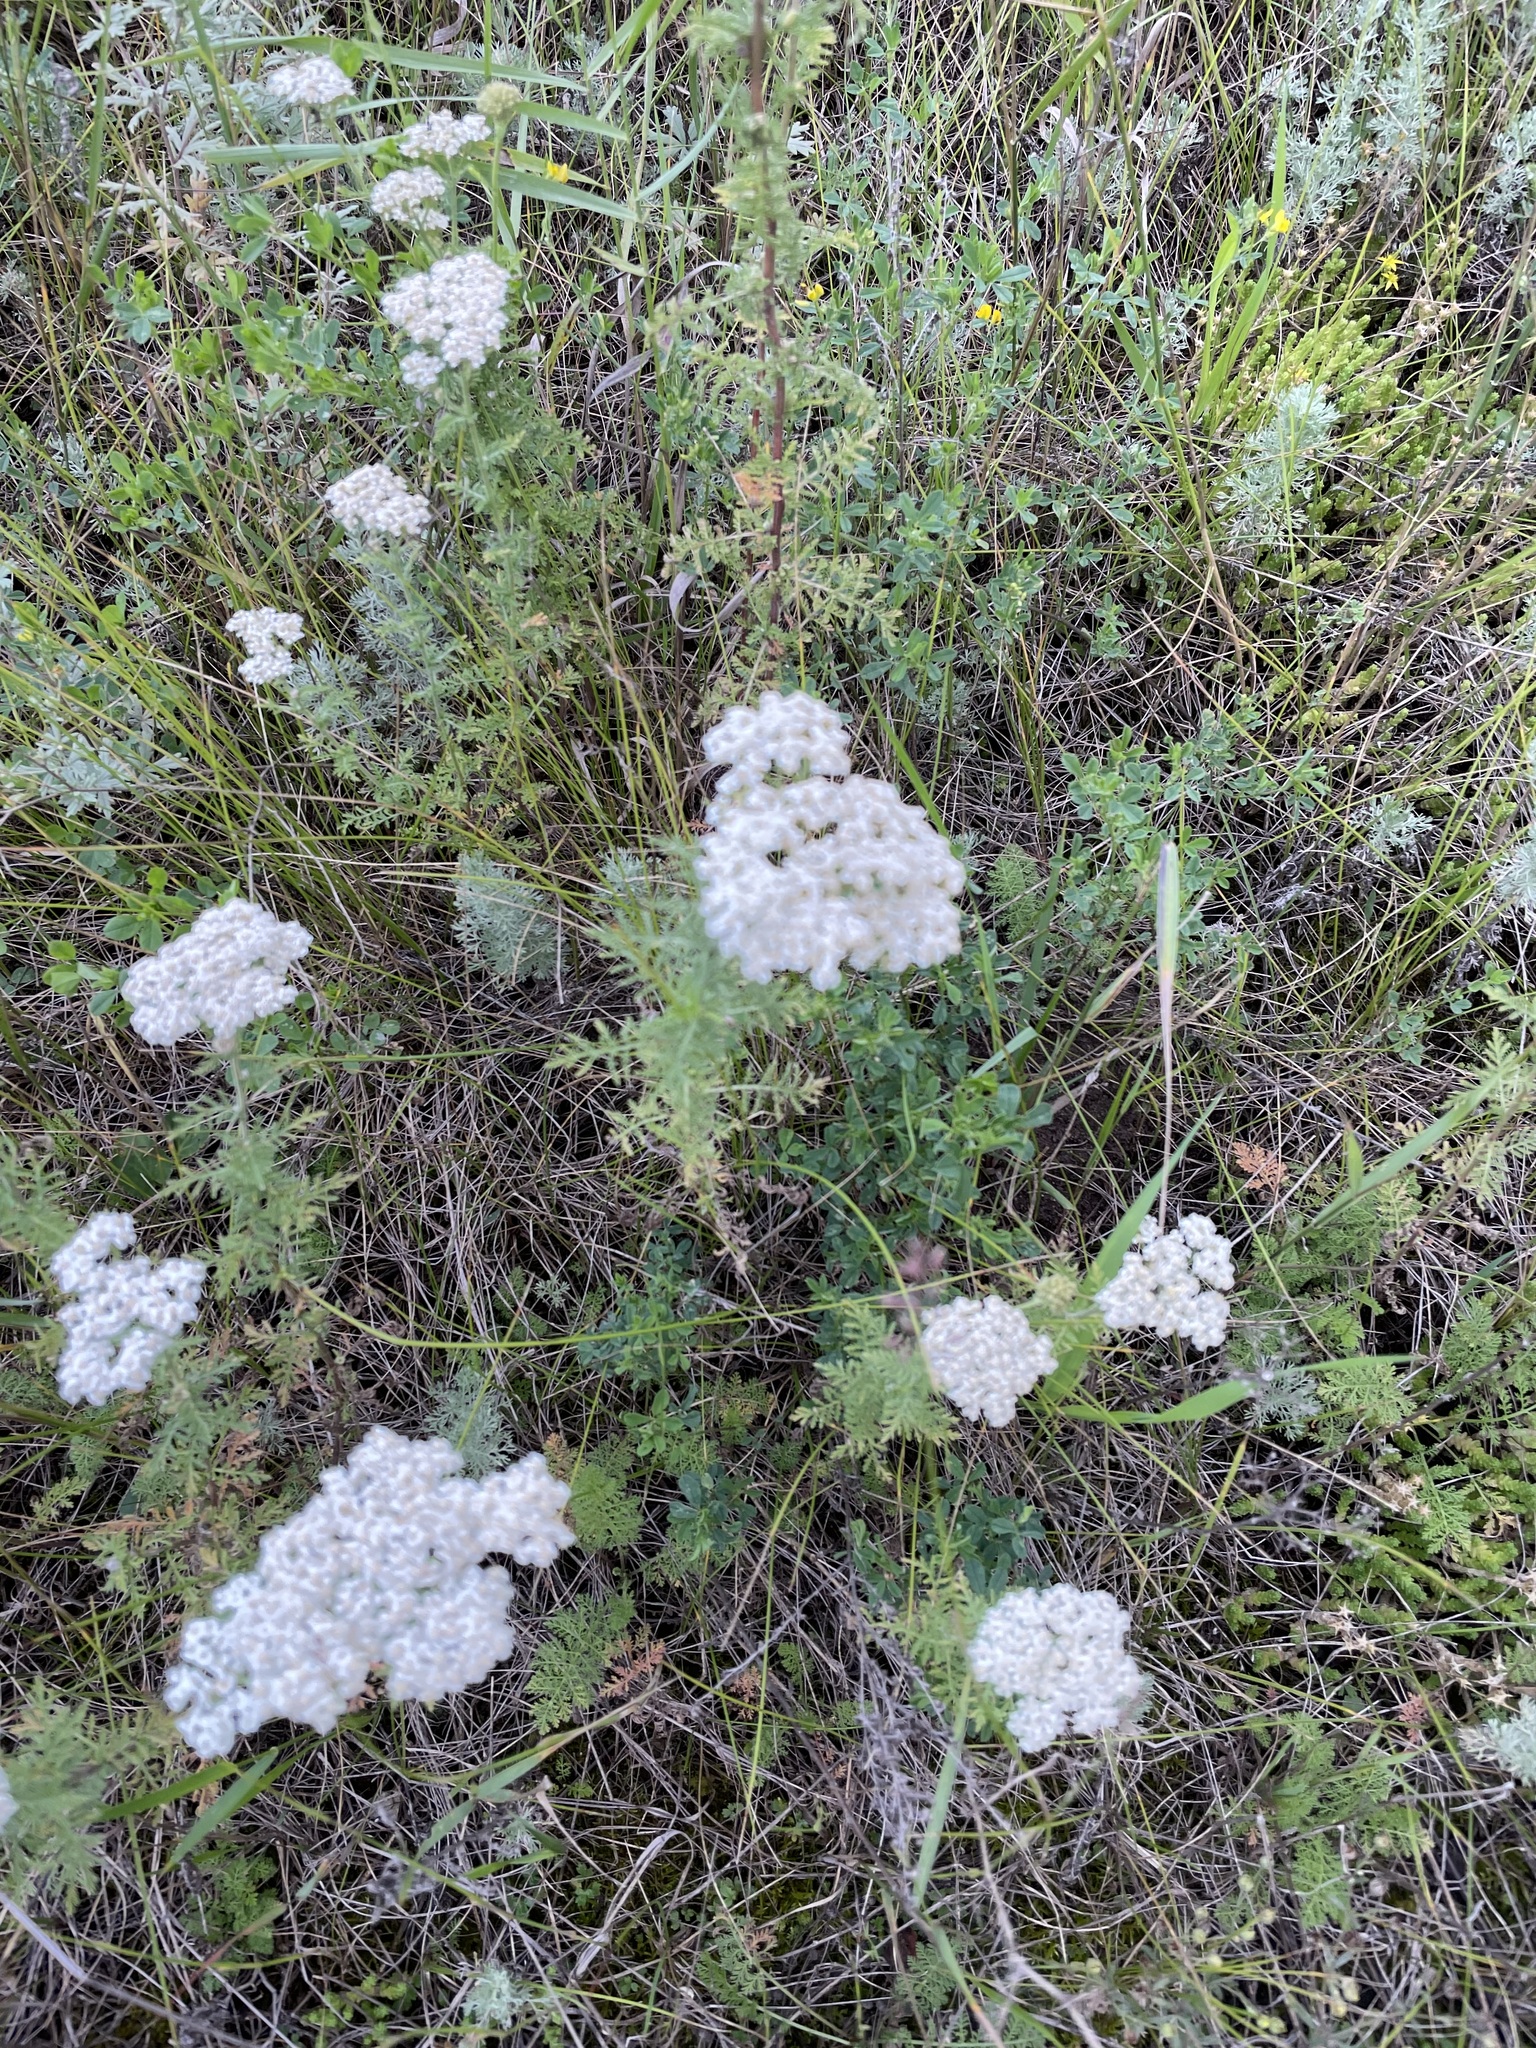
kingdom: Plantae
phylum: Tracheophyta
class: Magnoliopsida
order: Asterales
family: Asteraceae
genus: Achillea
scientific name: Achillea nobilis
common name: Noble yarrow
